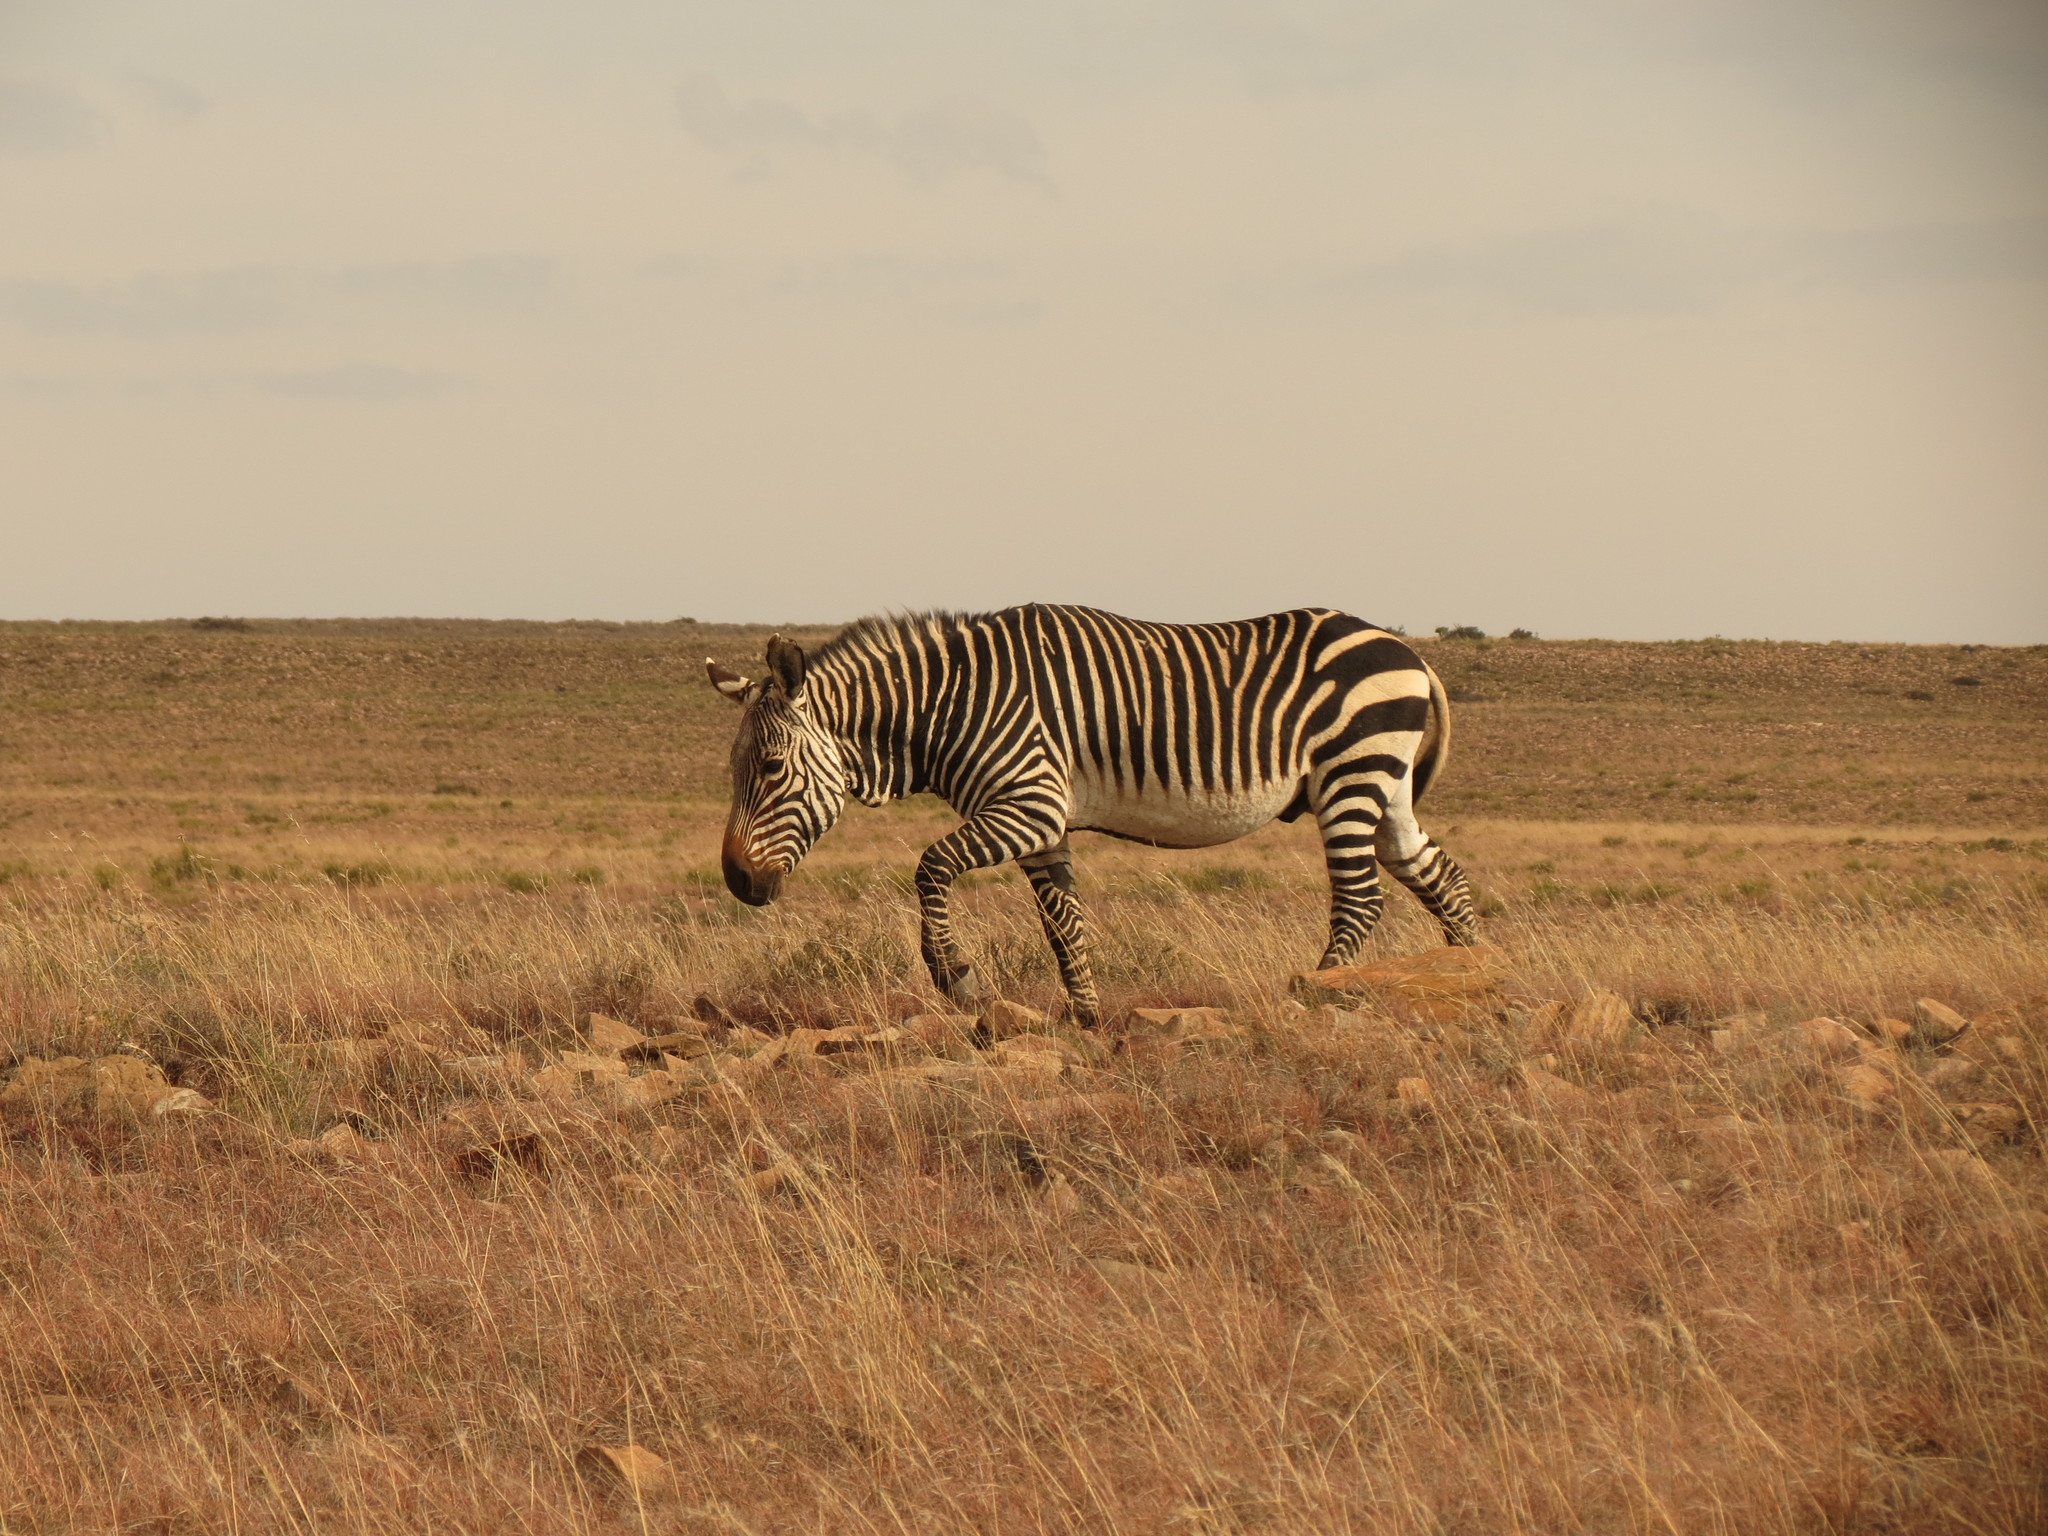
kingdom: Animalia
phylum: Chordata
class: Mammalia
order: Perissodactyla
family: Equidae
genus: Equus
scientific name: Equus zebra
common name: Mountain zebra
